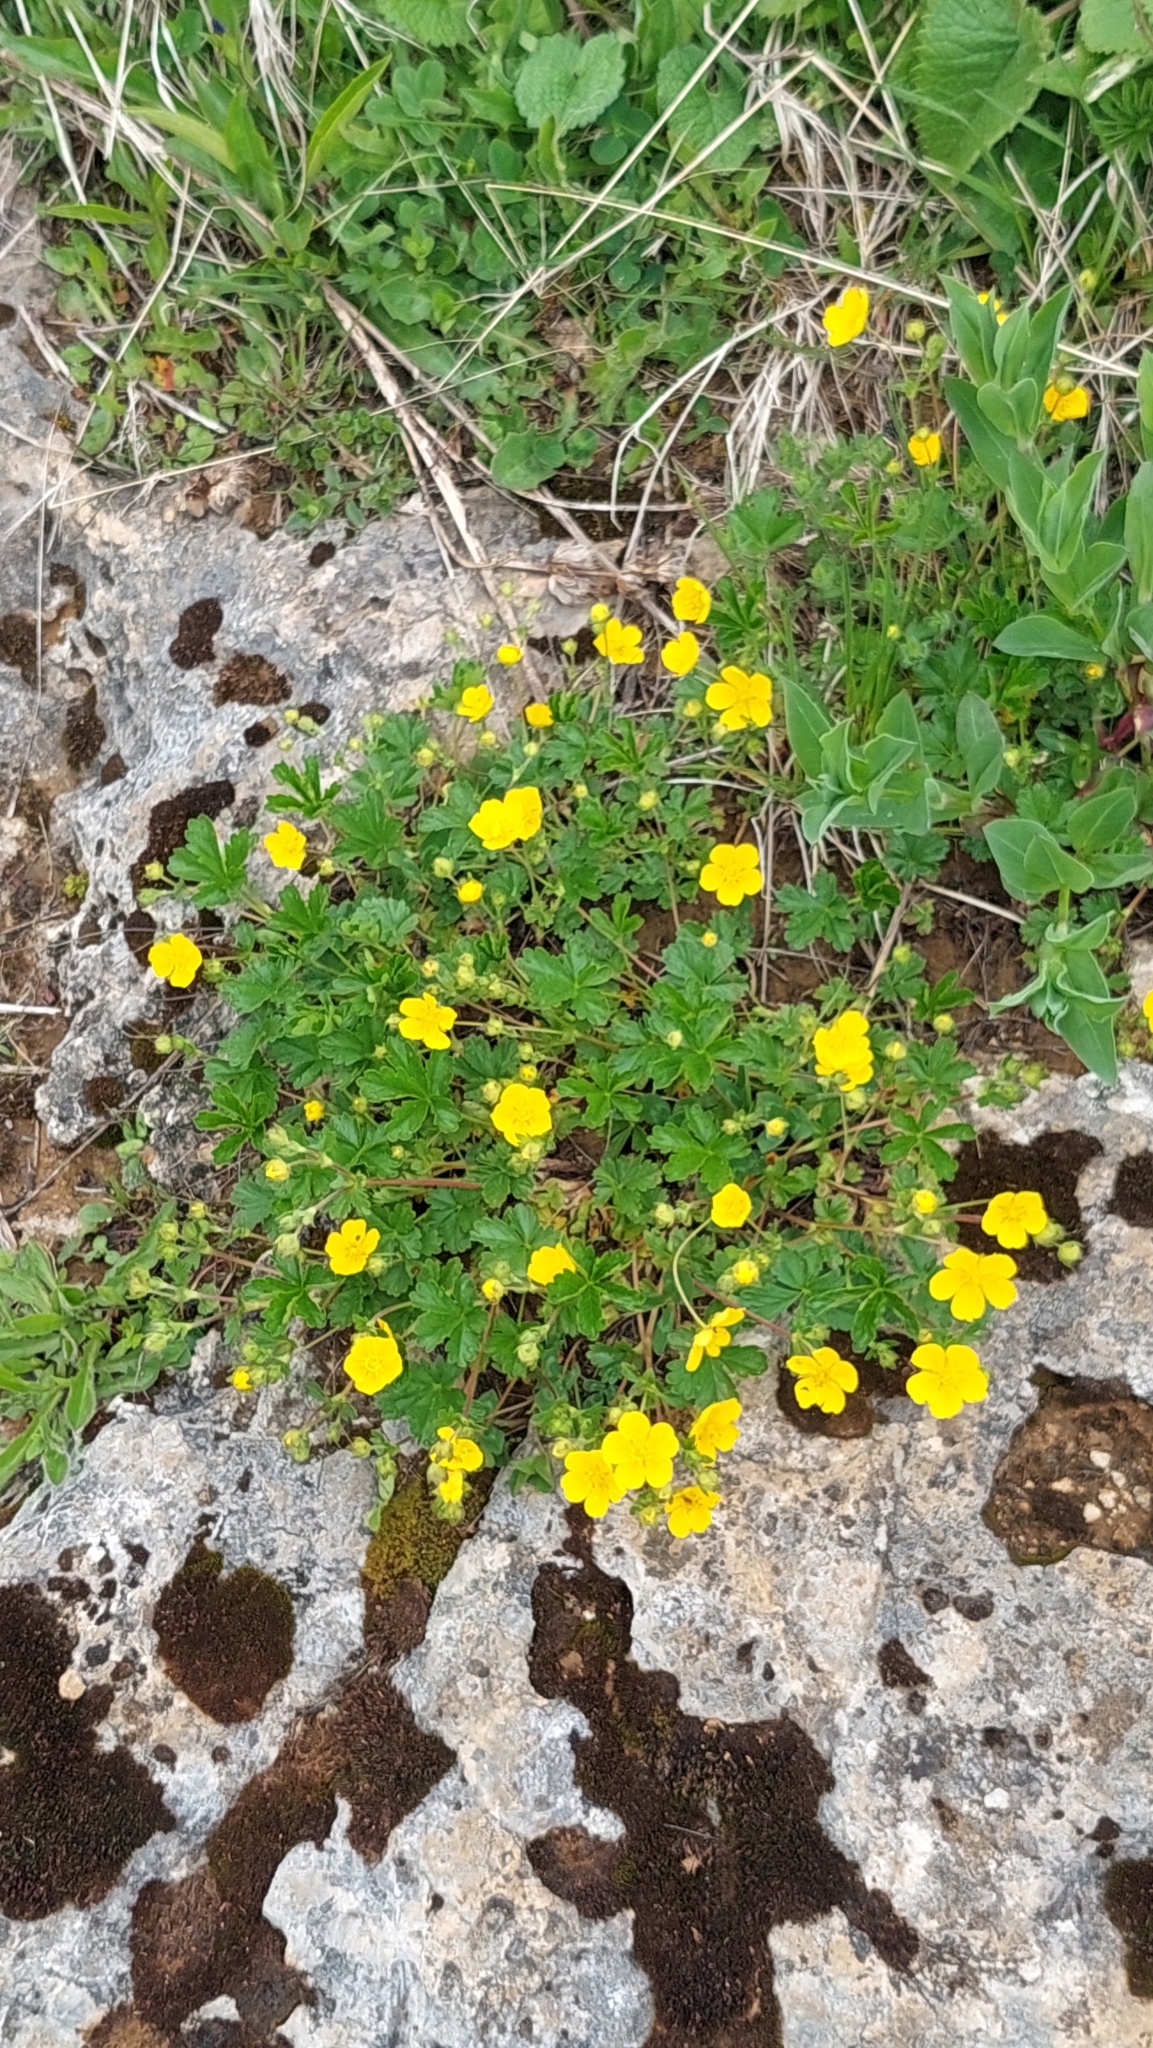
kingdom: Plantae
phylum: Tracheophyta
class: Magnoliopsida
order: Rosales
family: Rosaceae
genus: Potentilla
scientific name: Potentilla crantzii
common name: Alpine cinquefoil
